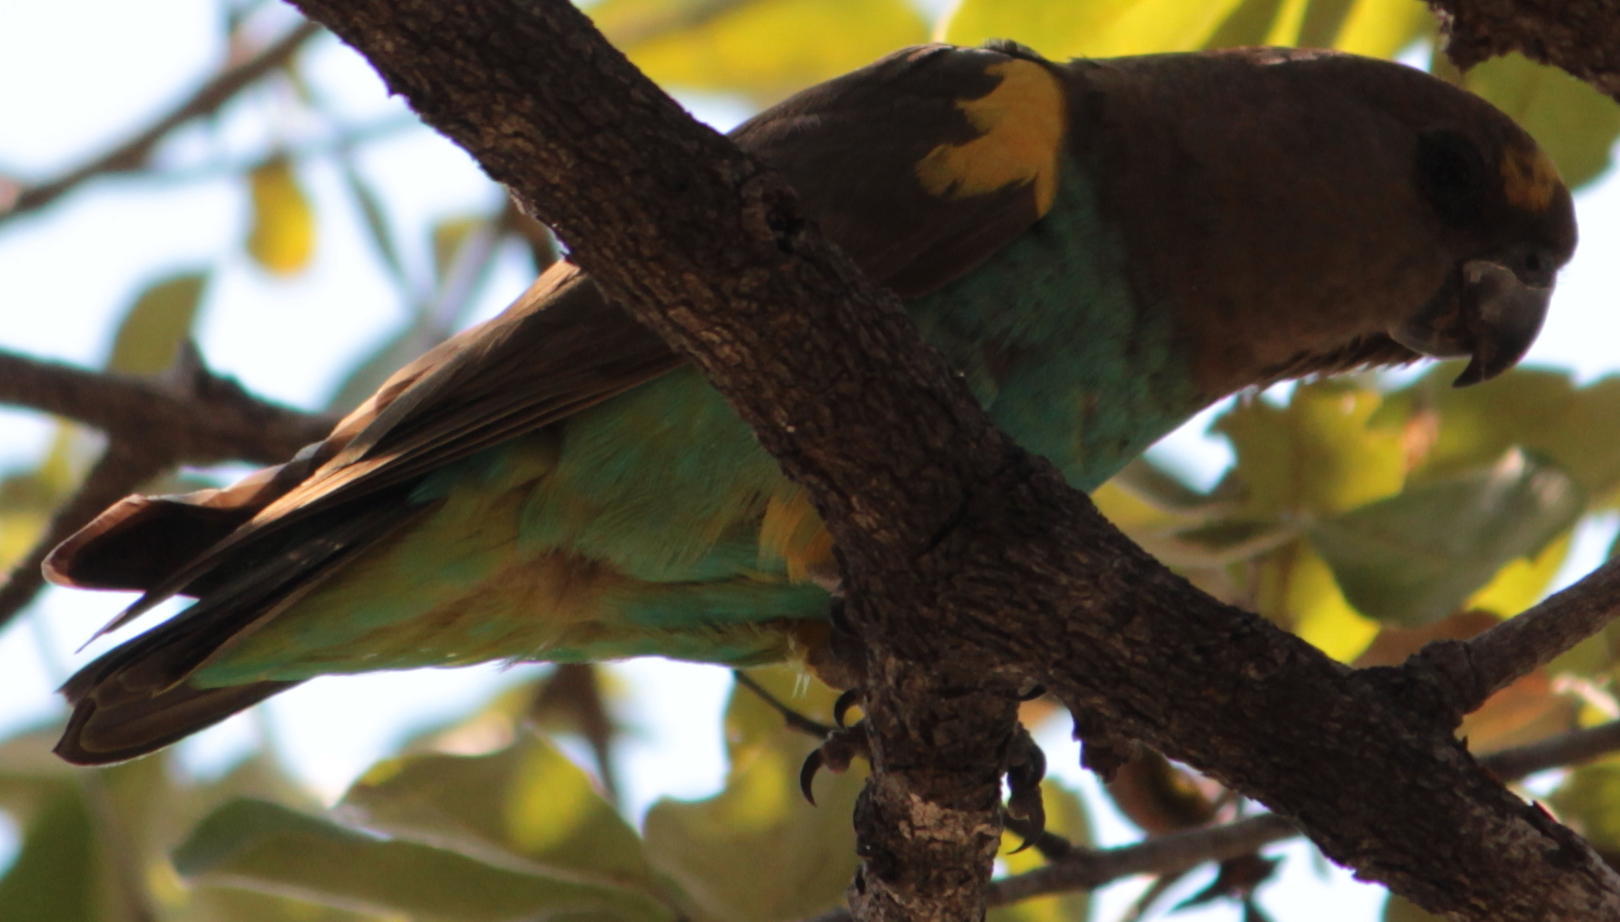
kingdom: Animalia
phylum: Chordata
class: Aves
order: Psittaciformes
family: Psittacidae
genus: Poicephalus
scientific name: Poicephalus meyeri
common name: Meyer's parrot
